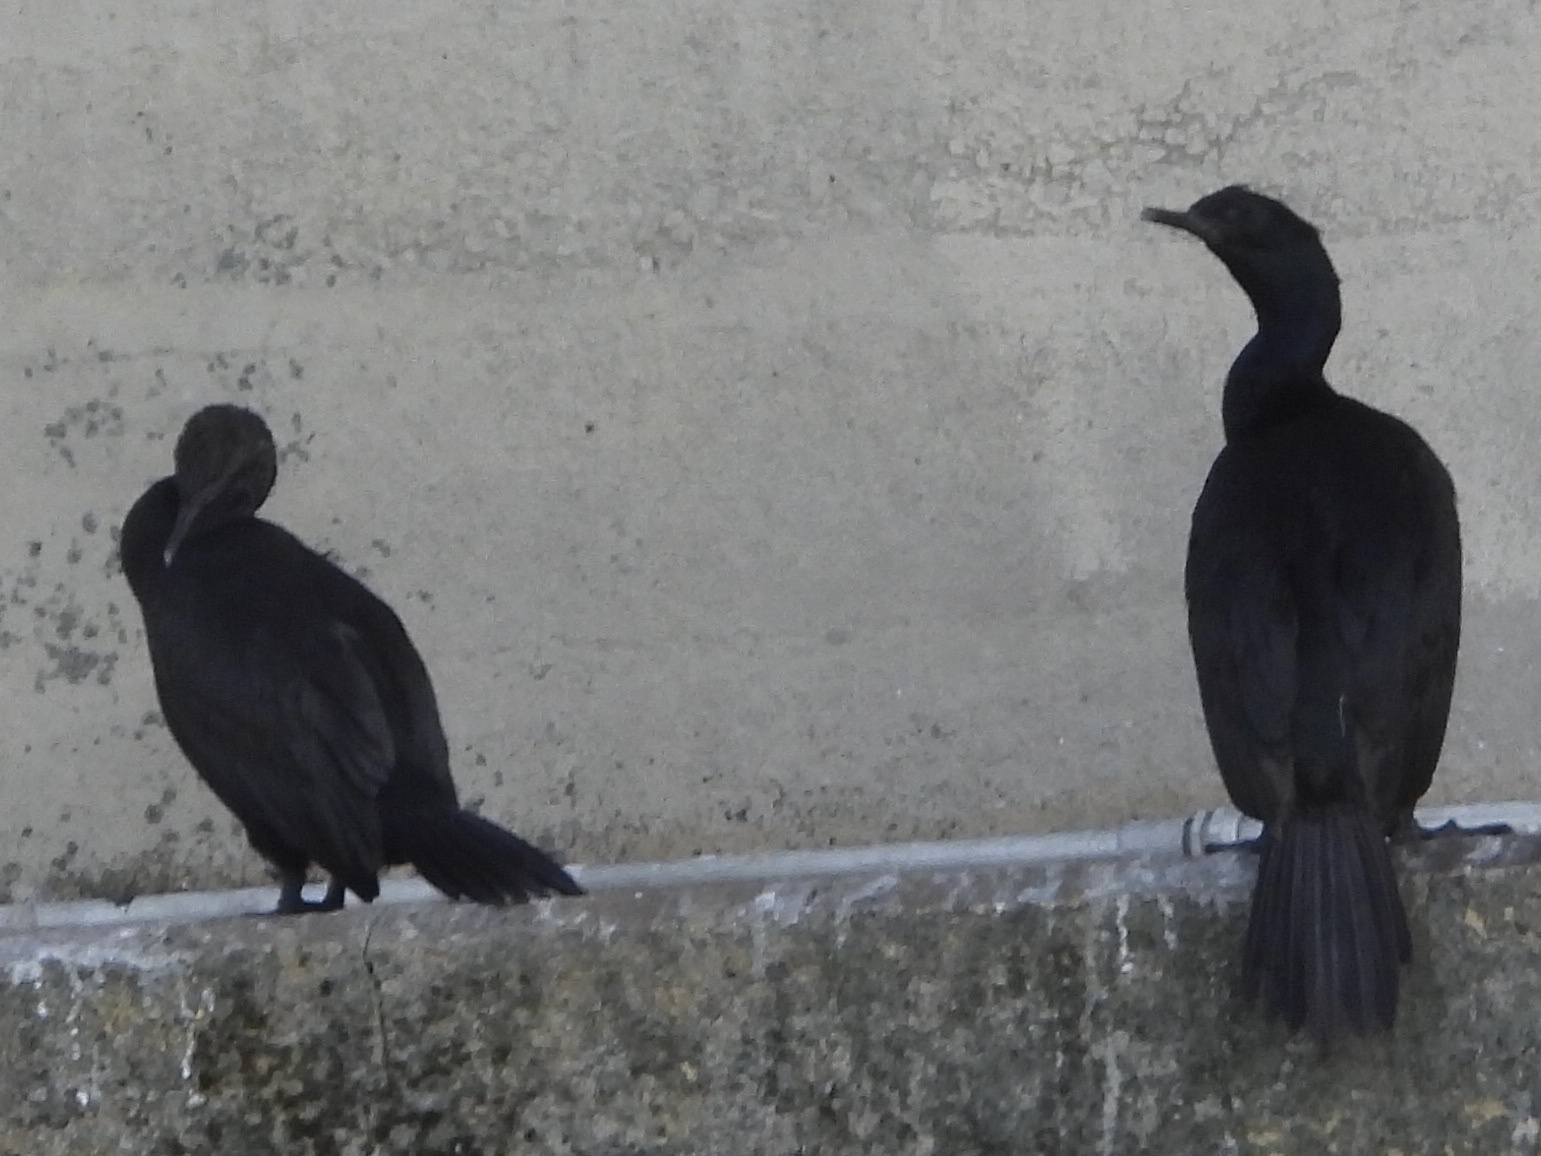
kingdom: Animalia
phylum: Chordata
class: Aves
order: Suliformes
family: Phalacrocoracidae
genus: Phalacrocorax
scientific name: Phalacrocorax pelagicus
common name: Pelagic cormorant
